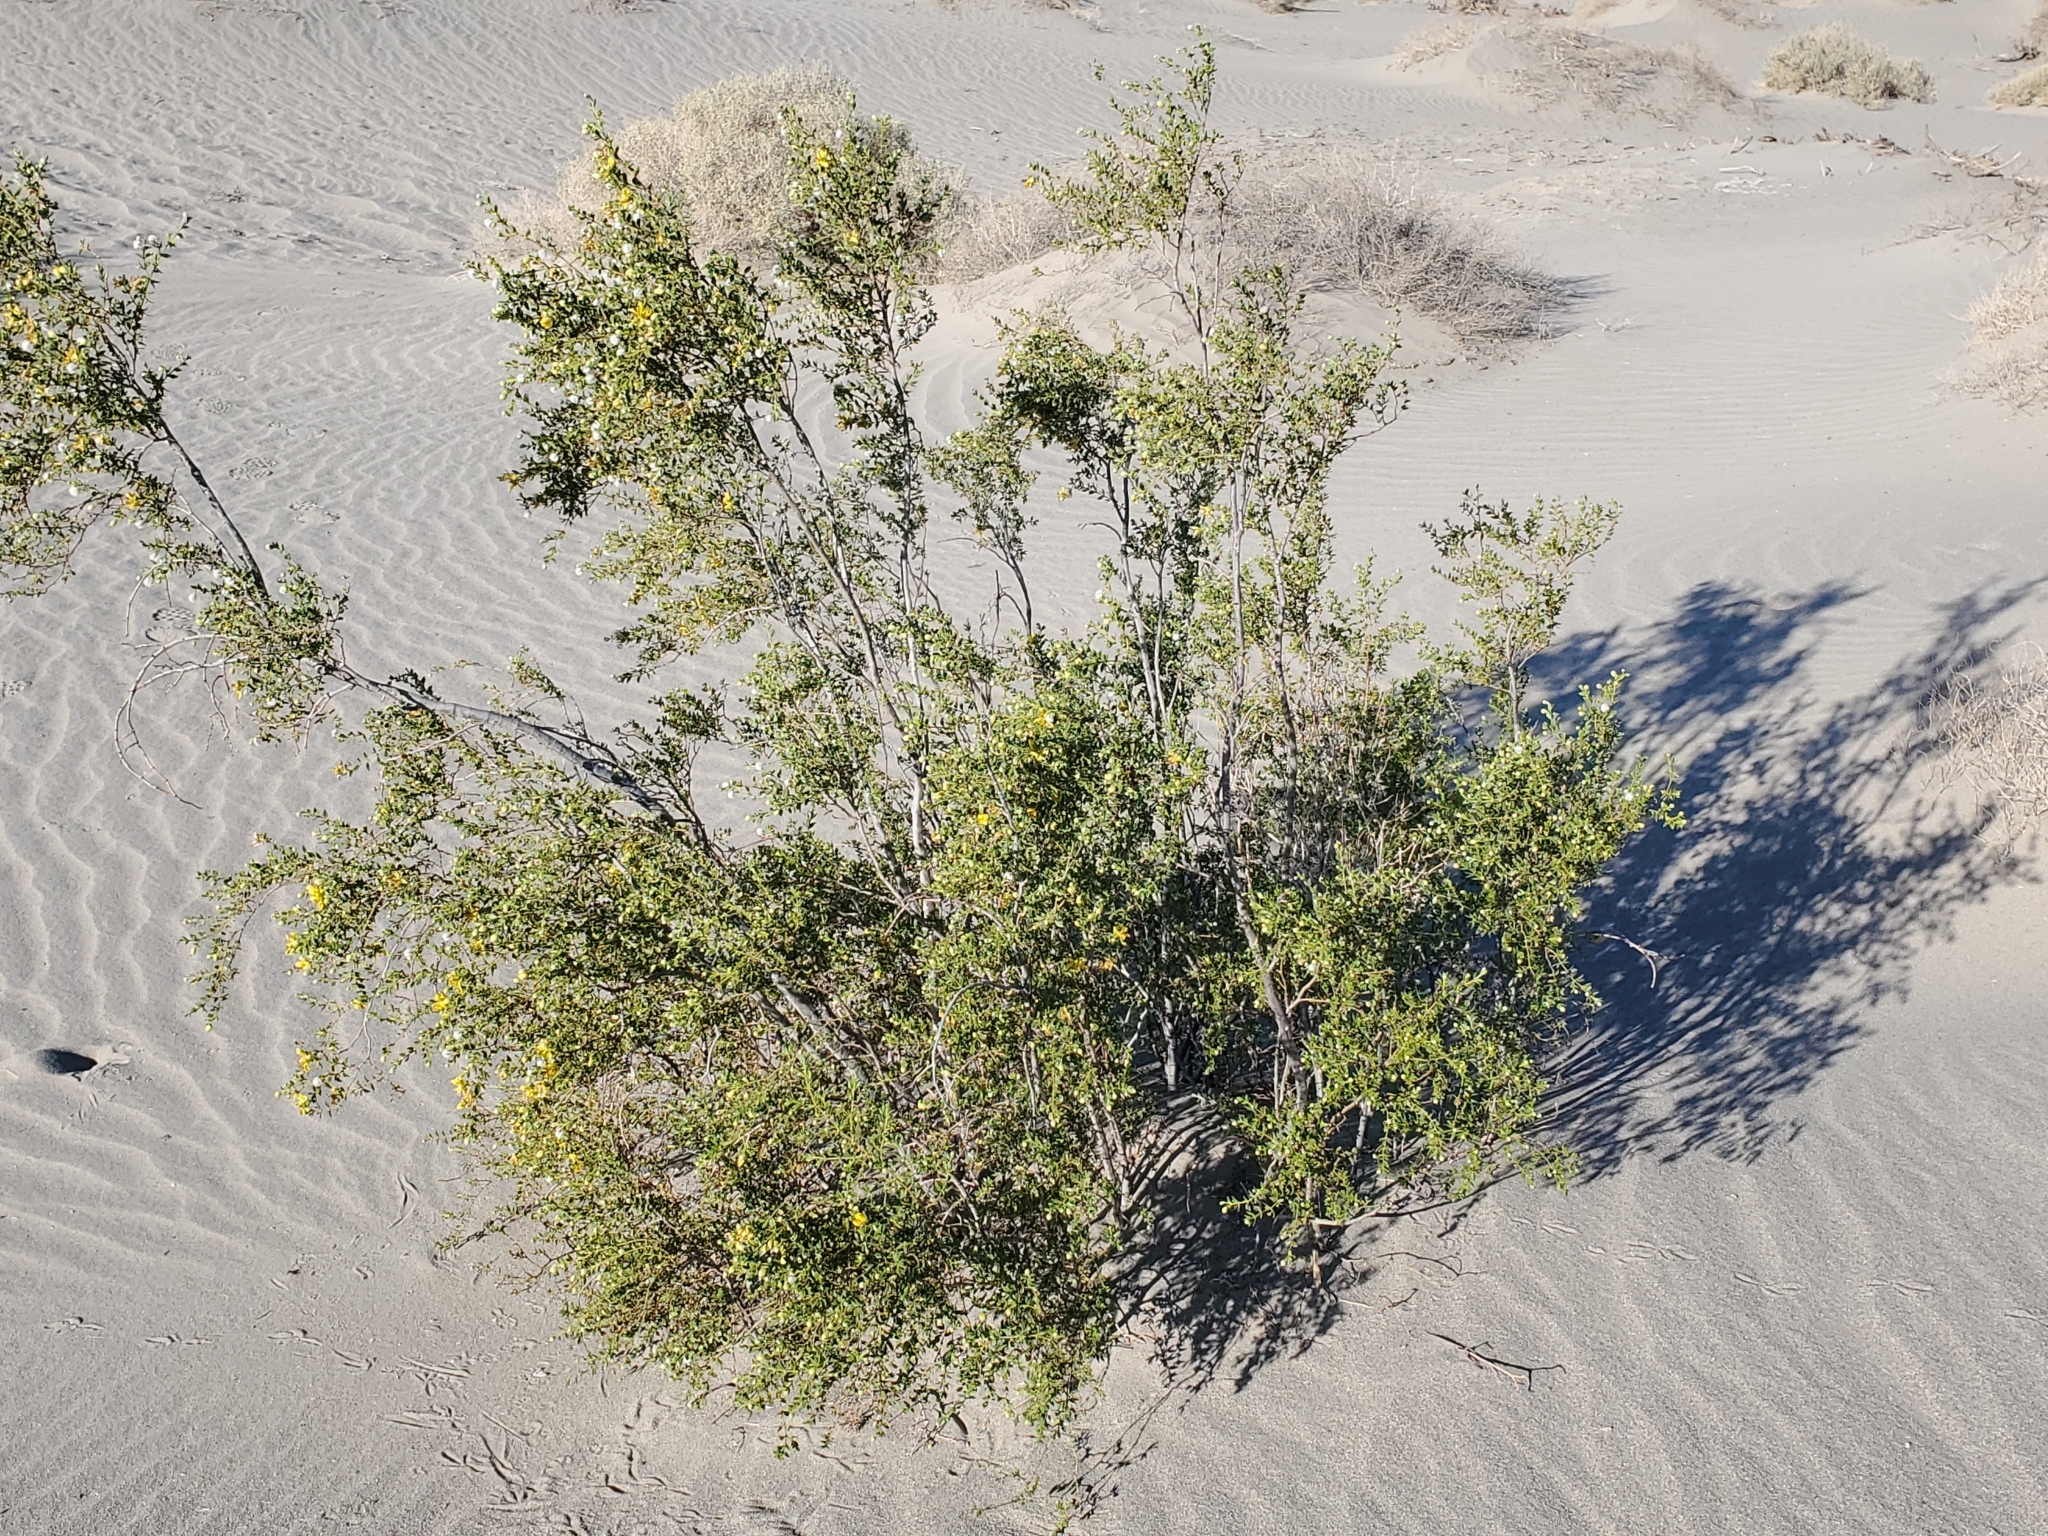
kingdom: Plantae
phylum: Tracheophyta
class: Magnoliopsida
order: Zygophyllales
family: Zygophyllaceae
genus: Larrea
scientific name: Larrea tridentata
